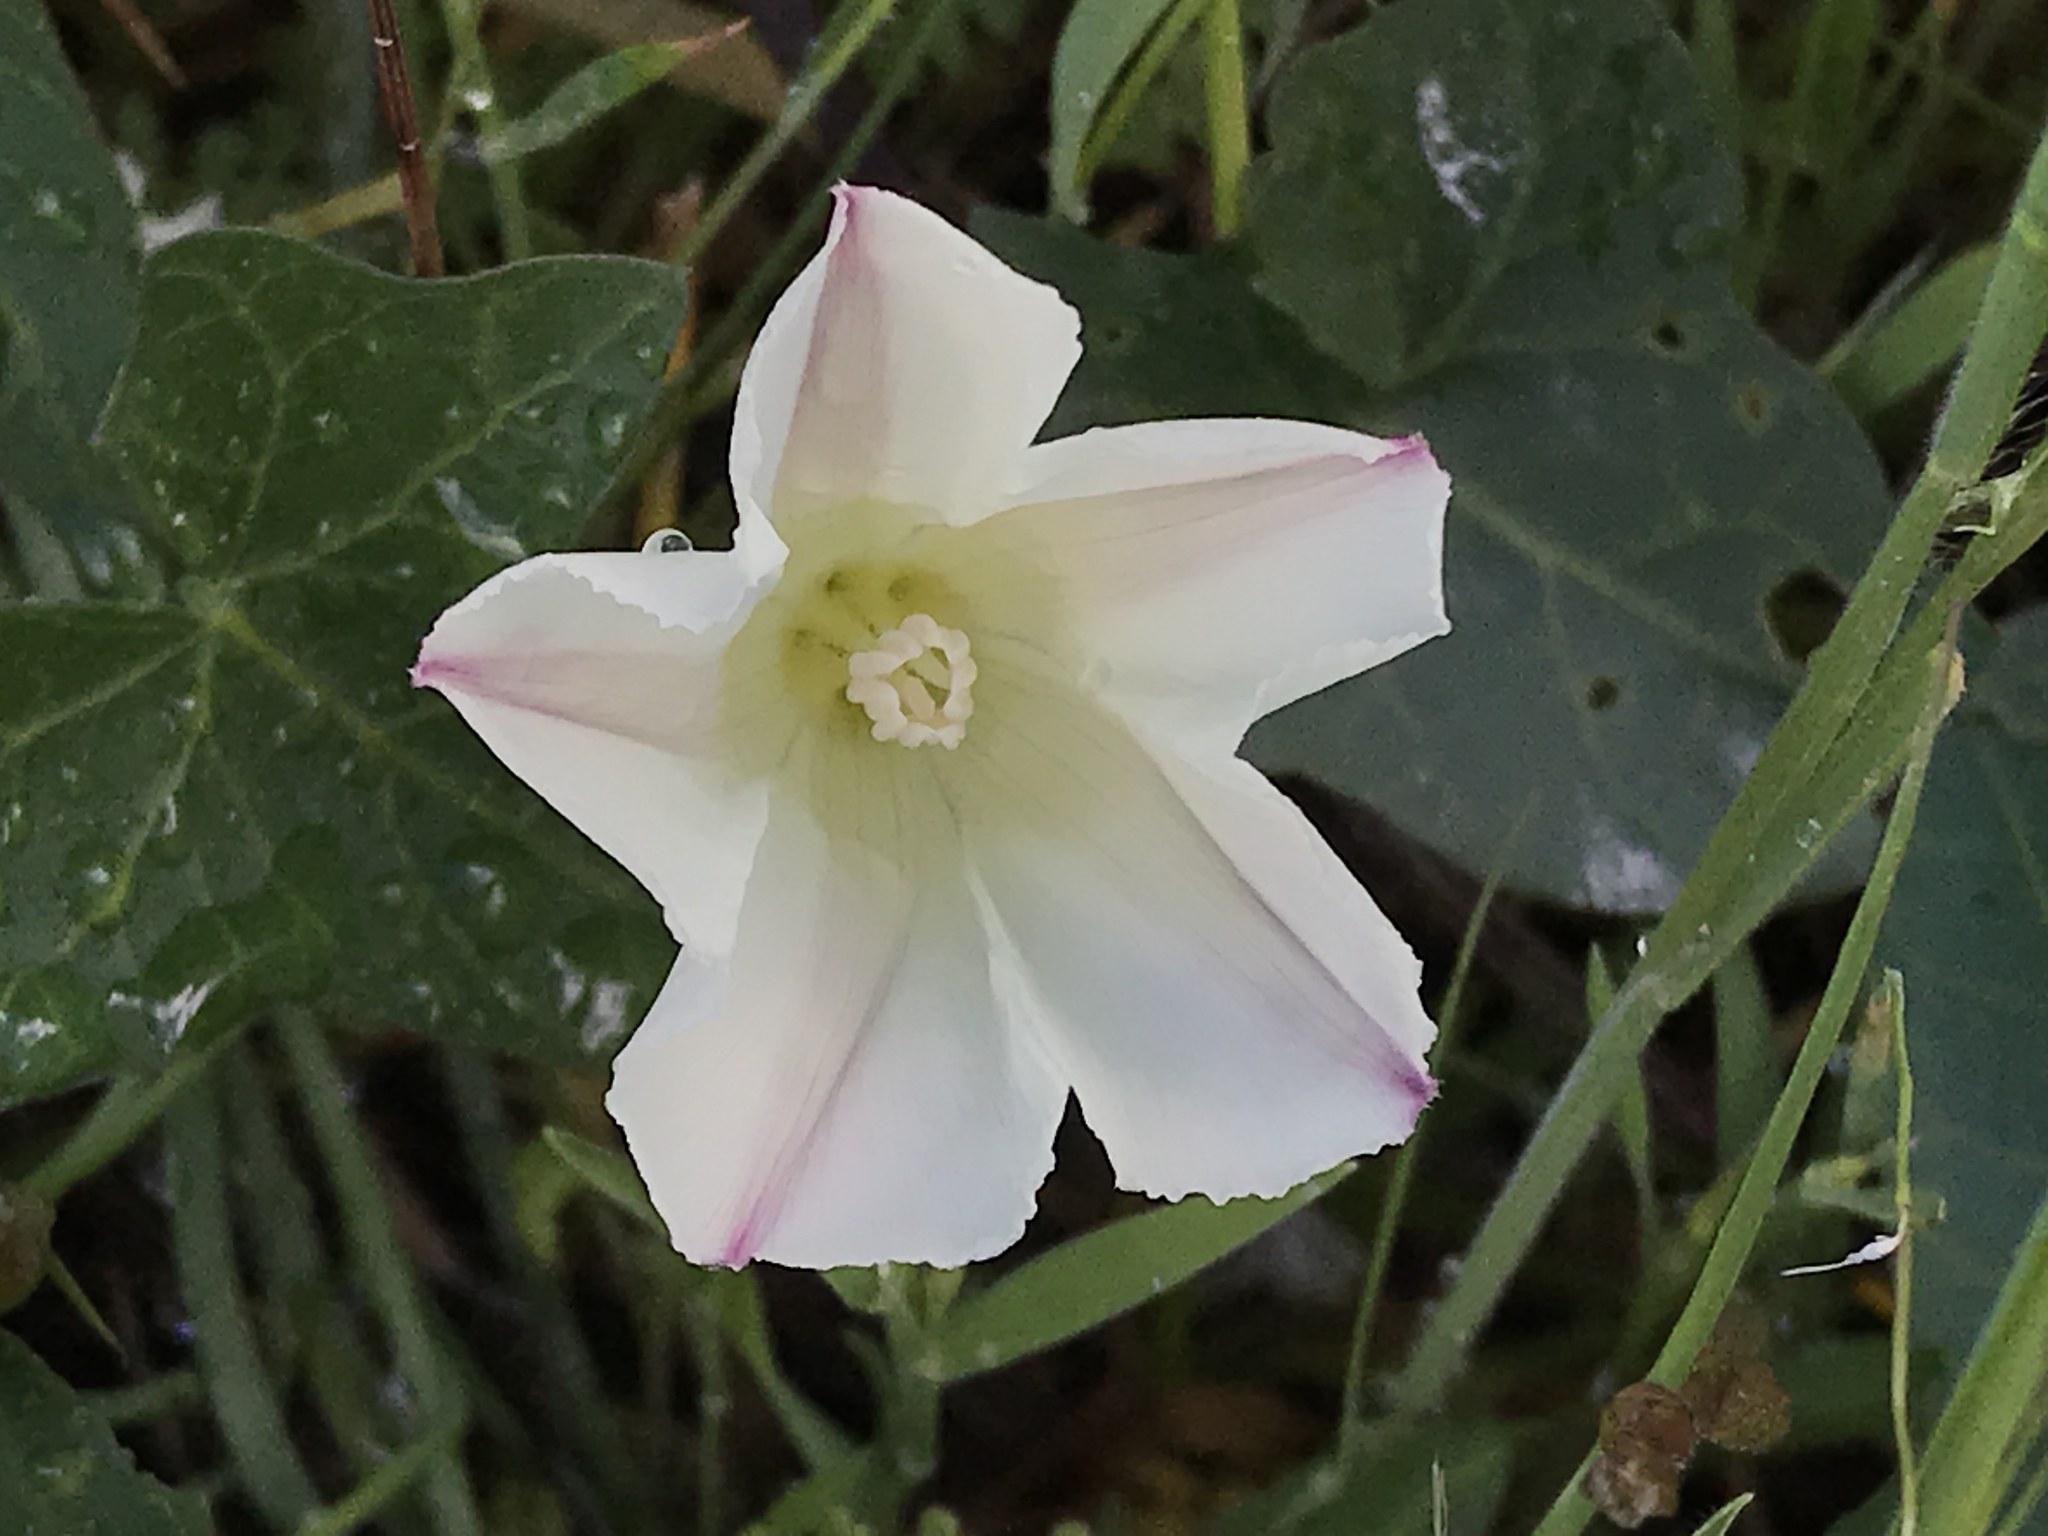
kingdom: Plantae
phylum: Tracheophyta
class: Magnoliopsida
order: Solanales
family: Convolvulaceae
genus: Calystegia
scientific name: Calystegia purpurata
